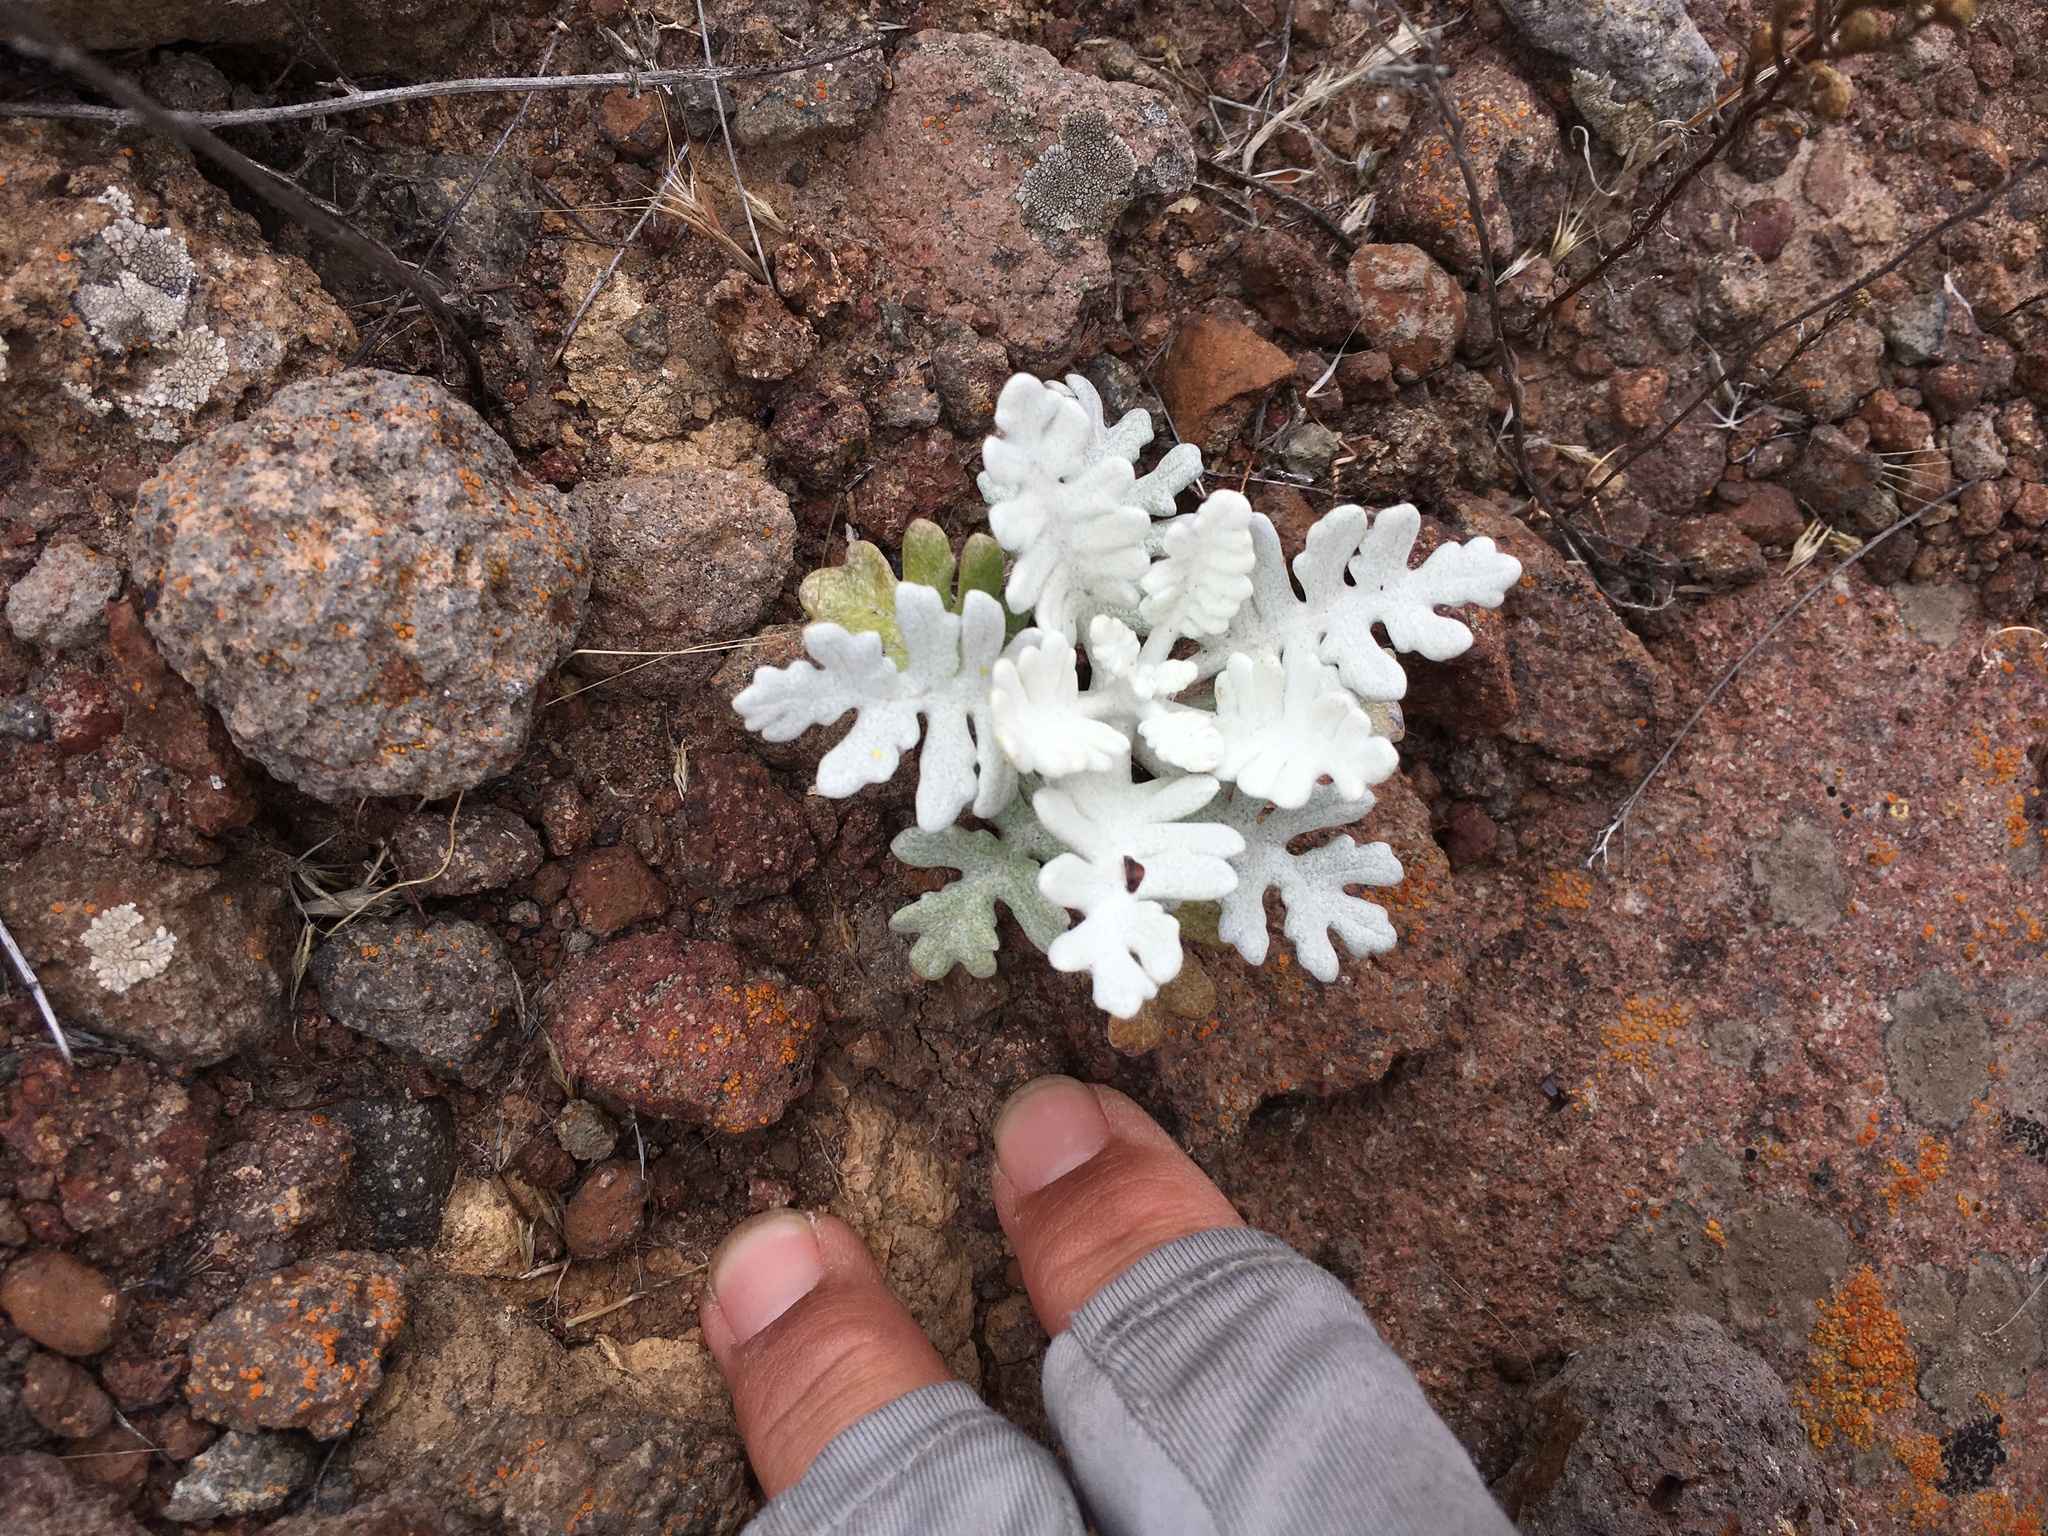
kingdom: Plantae
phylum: Tracheophyta
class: Magnoliopsida
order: Asterales
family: Asteraceae
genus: Constancea
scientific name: Constancea nevinii
